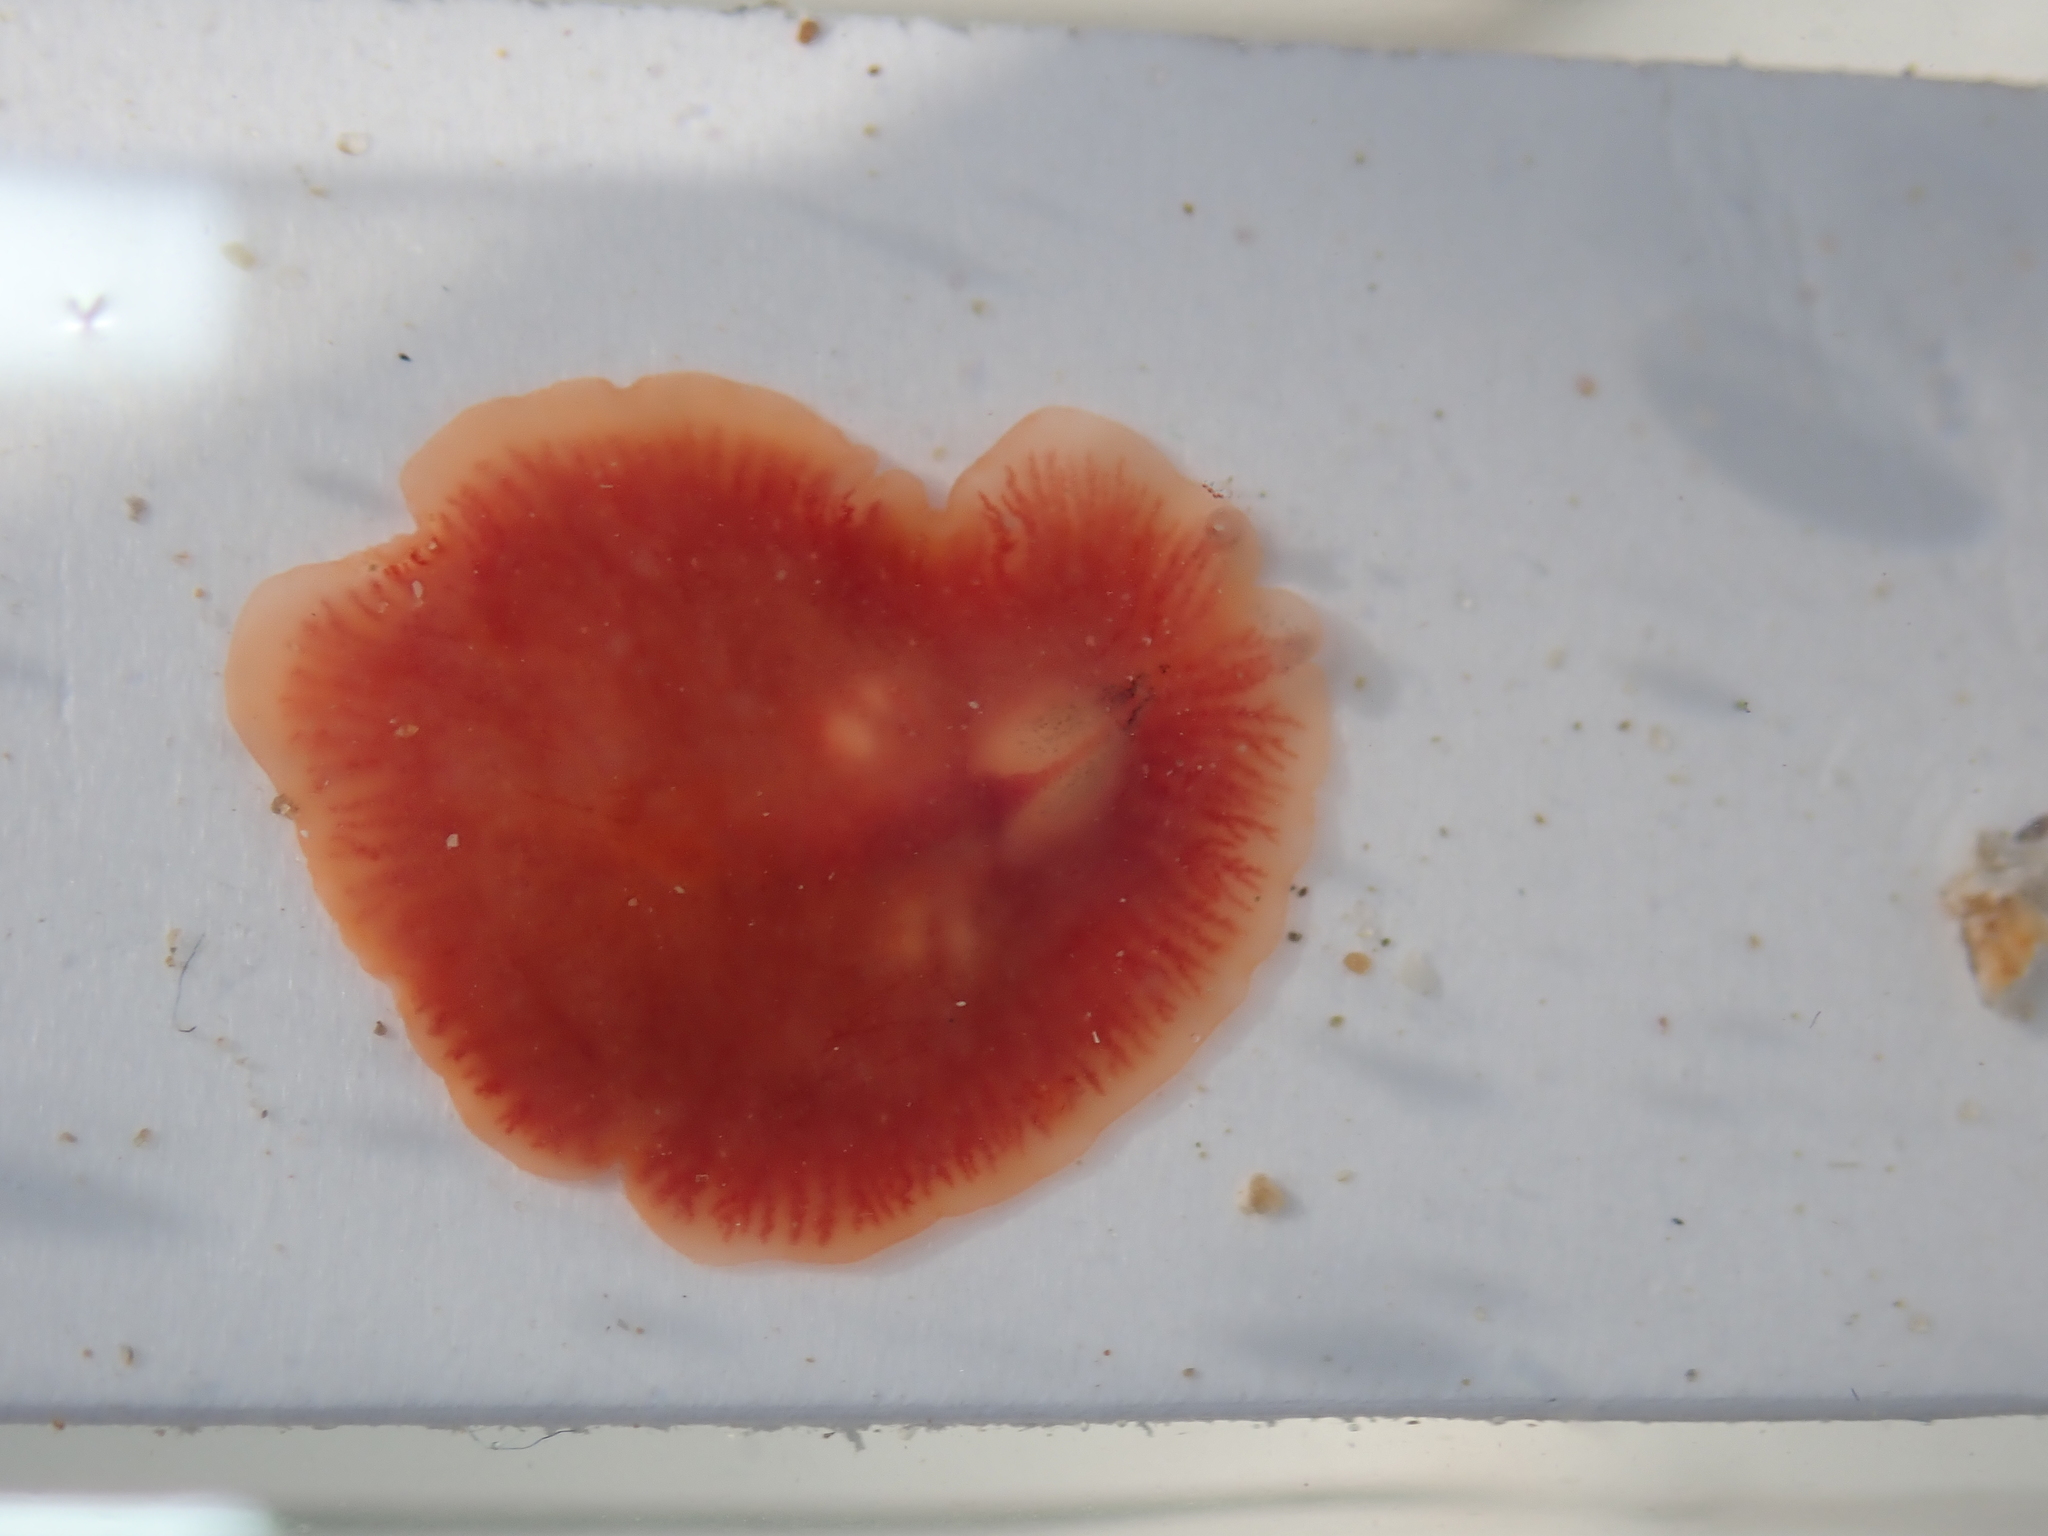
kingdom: Animalia
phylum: Platyhelminthes
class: Turbellaria
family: Euryleptidae
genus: Eurylepta
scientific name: Eurylepta cornuta
